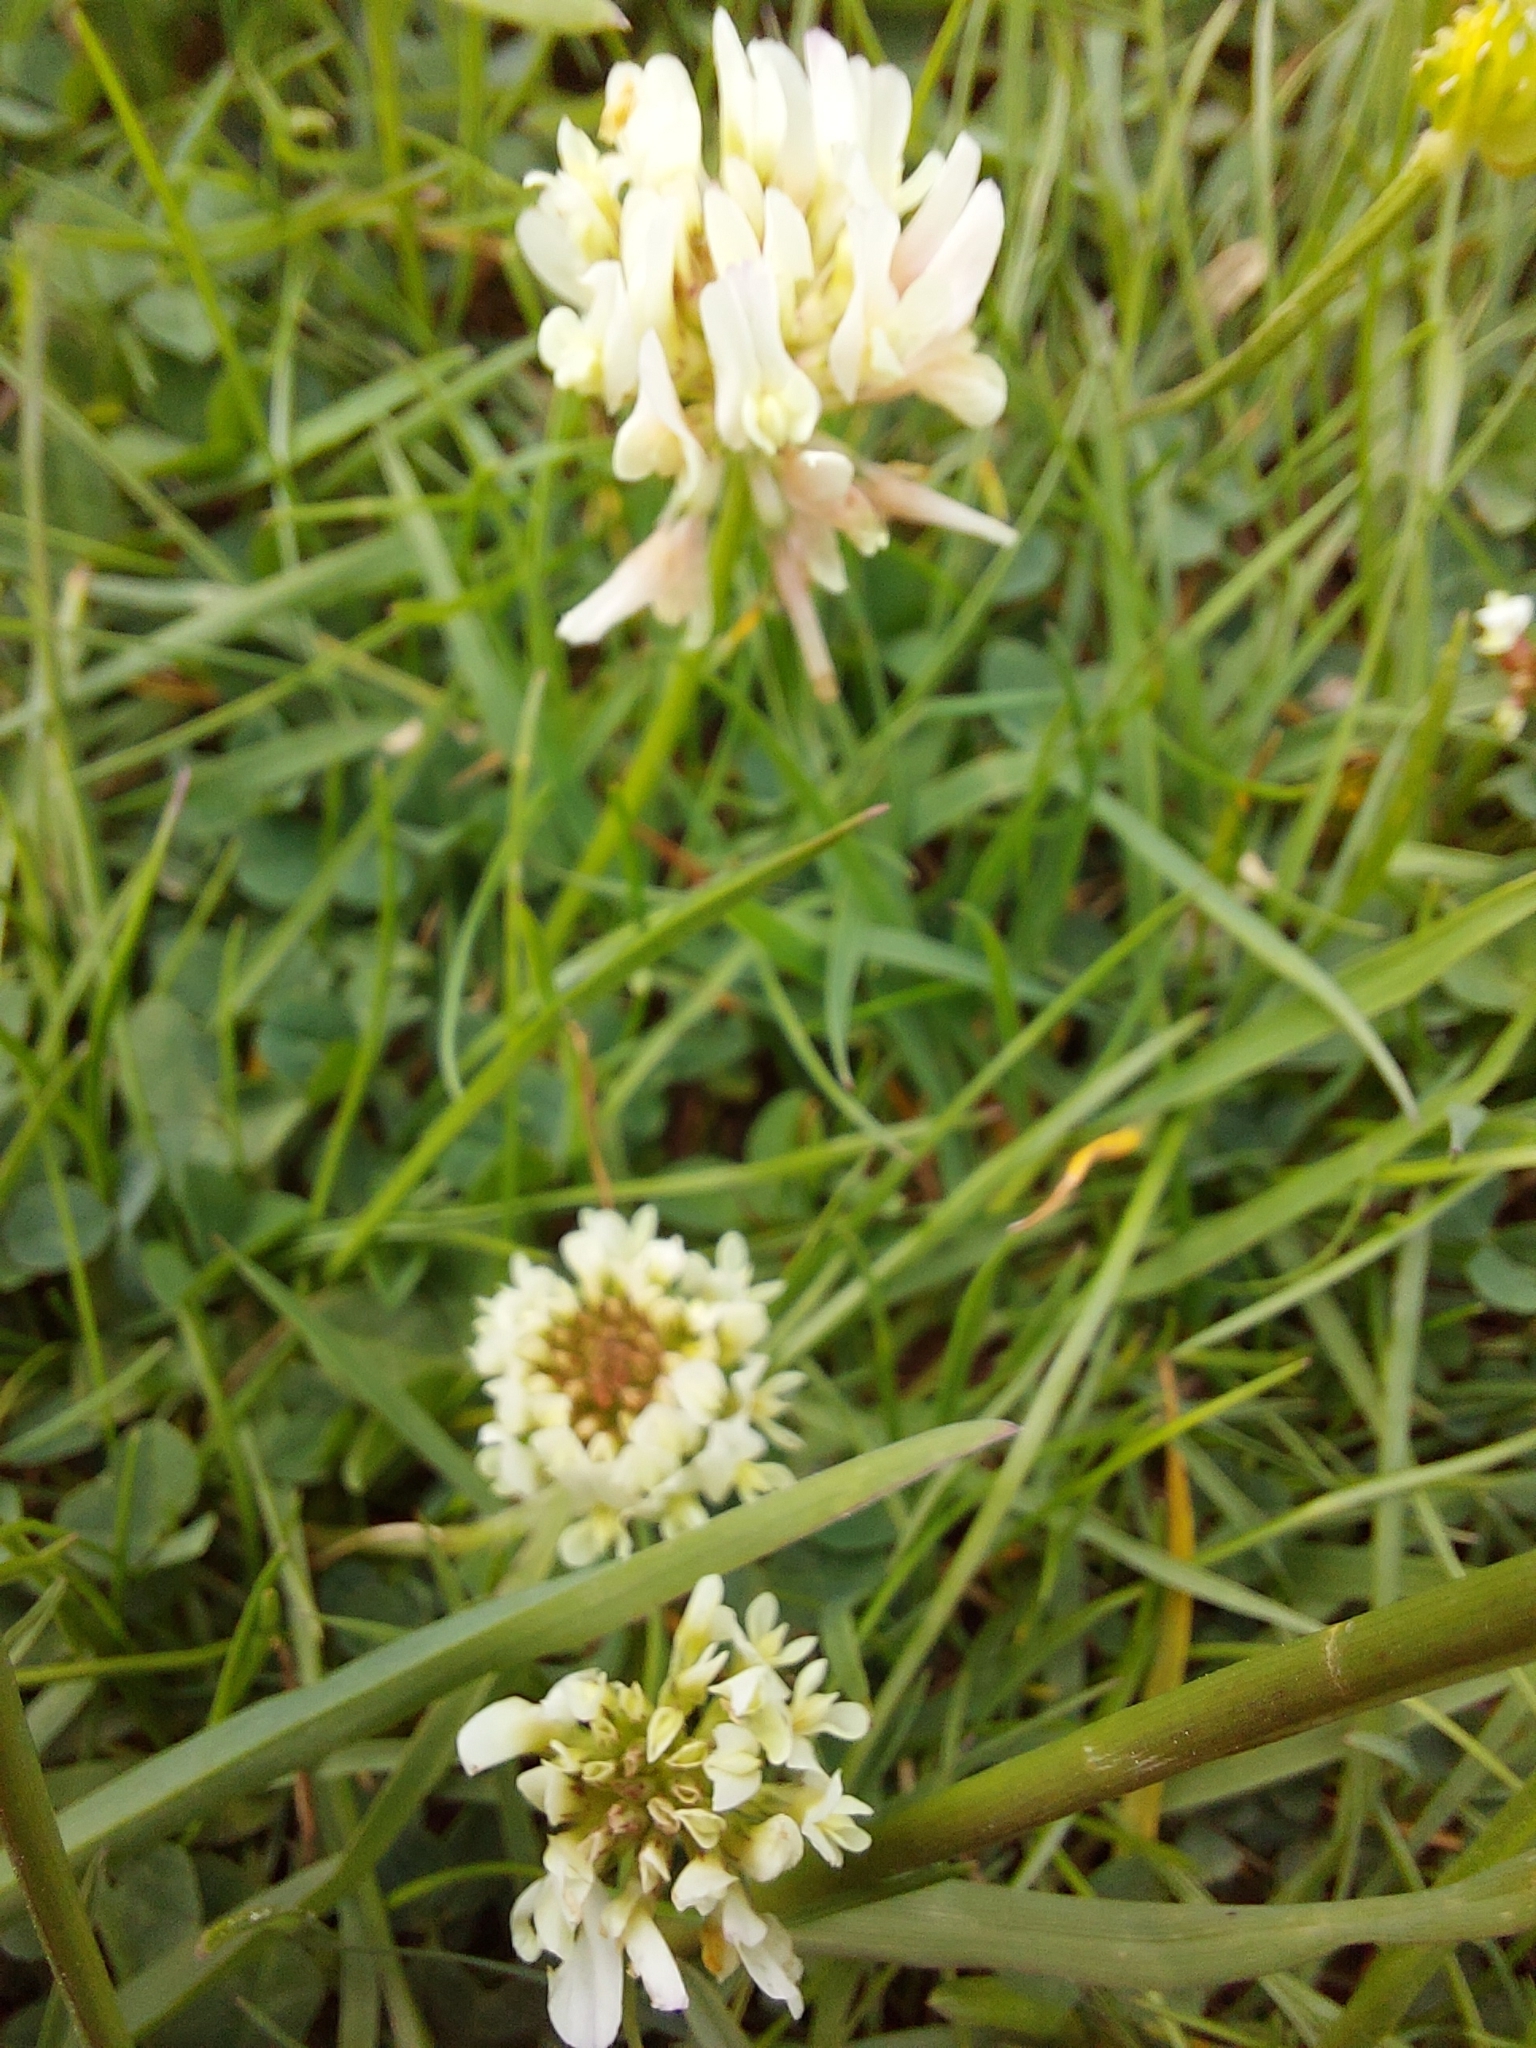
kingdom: Plantae
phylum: Tracheophyta
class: Magnoliopsida
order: Fabales
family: Fabaceae
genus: Trifolium
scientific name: Trifolium repens
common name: White clover
